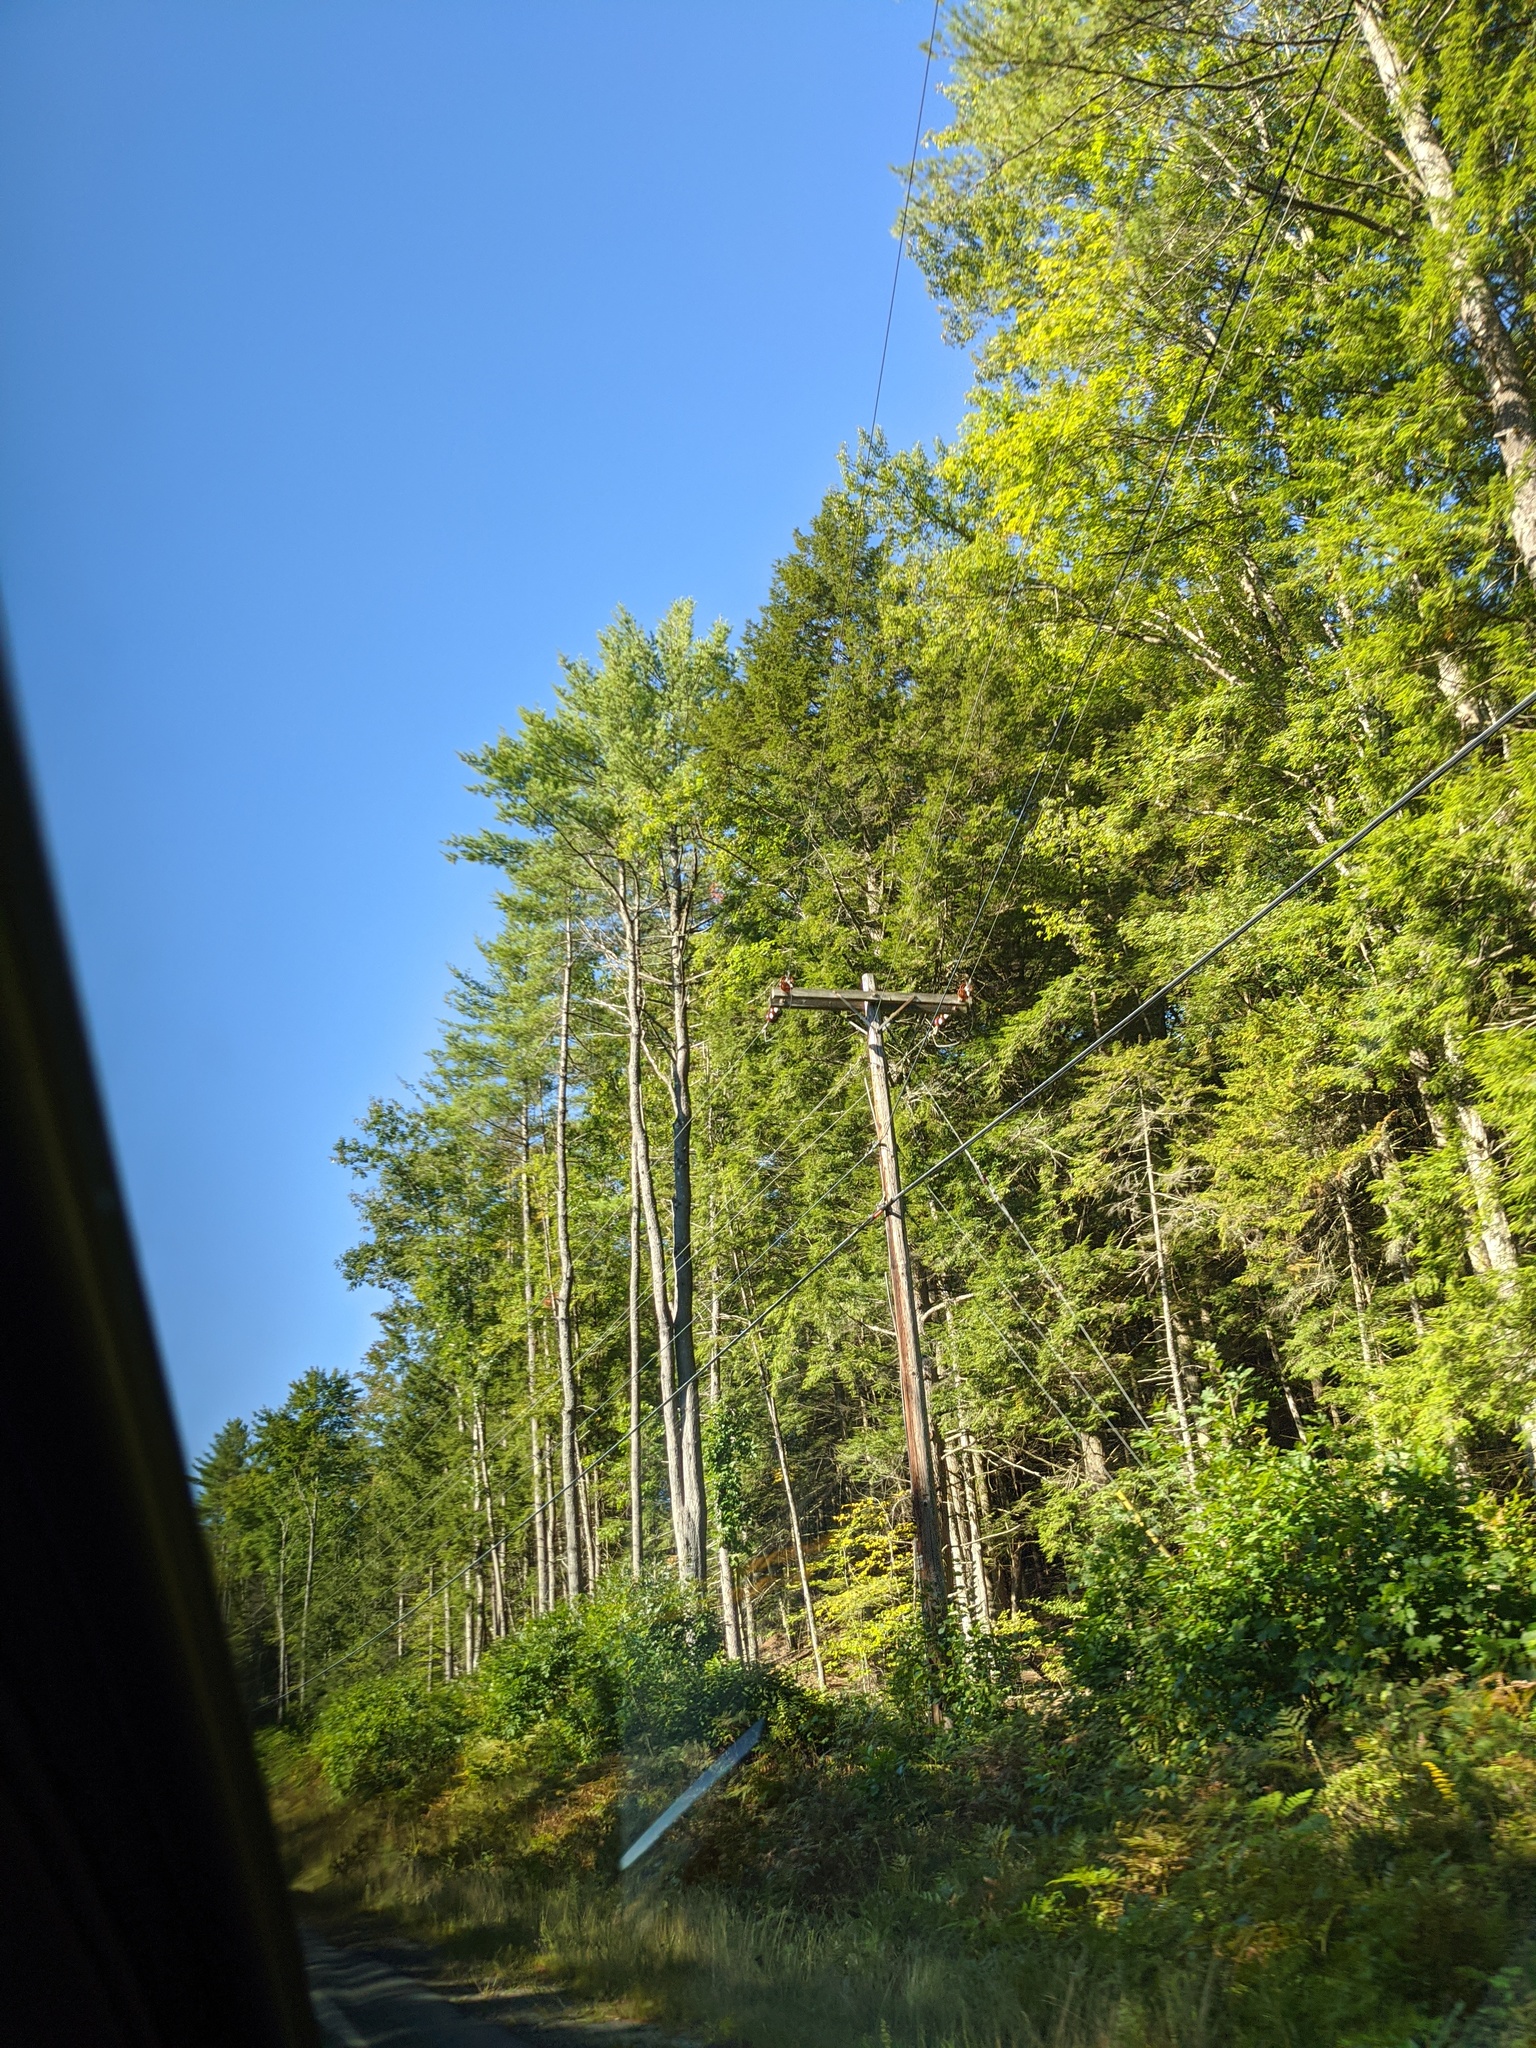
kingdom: Plantae
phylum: Tracheophyta
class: Pinopsida
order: Pinales
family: Pinaceae
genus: Pinus
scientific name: Pinus strobus
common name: Weymouth pine
